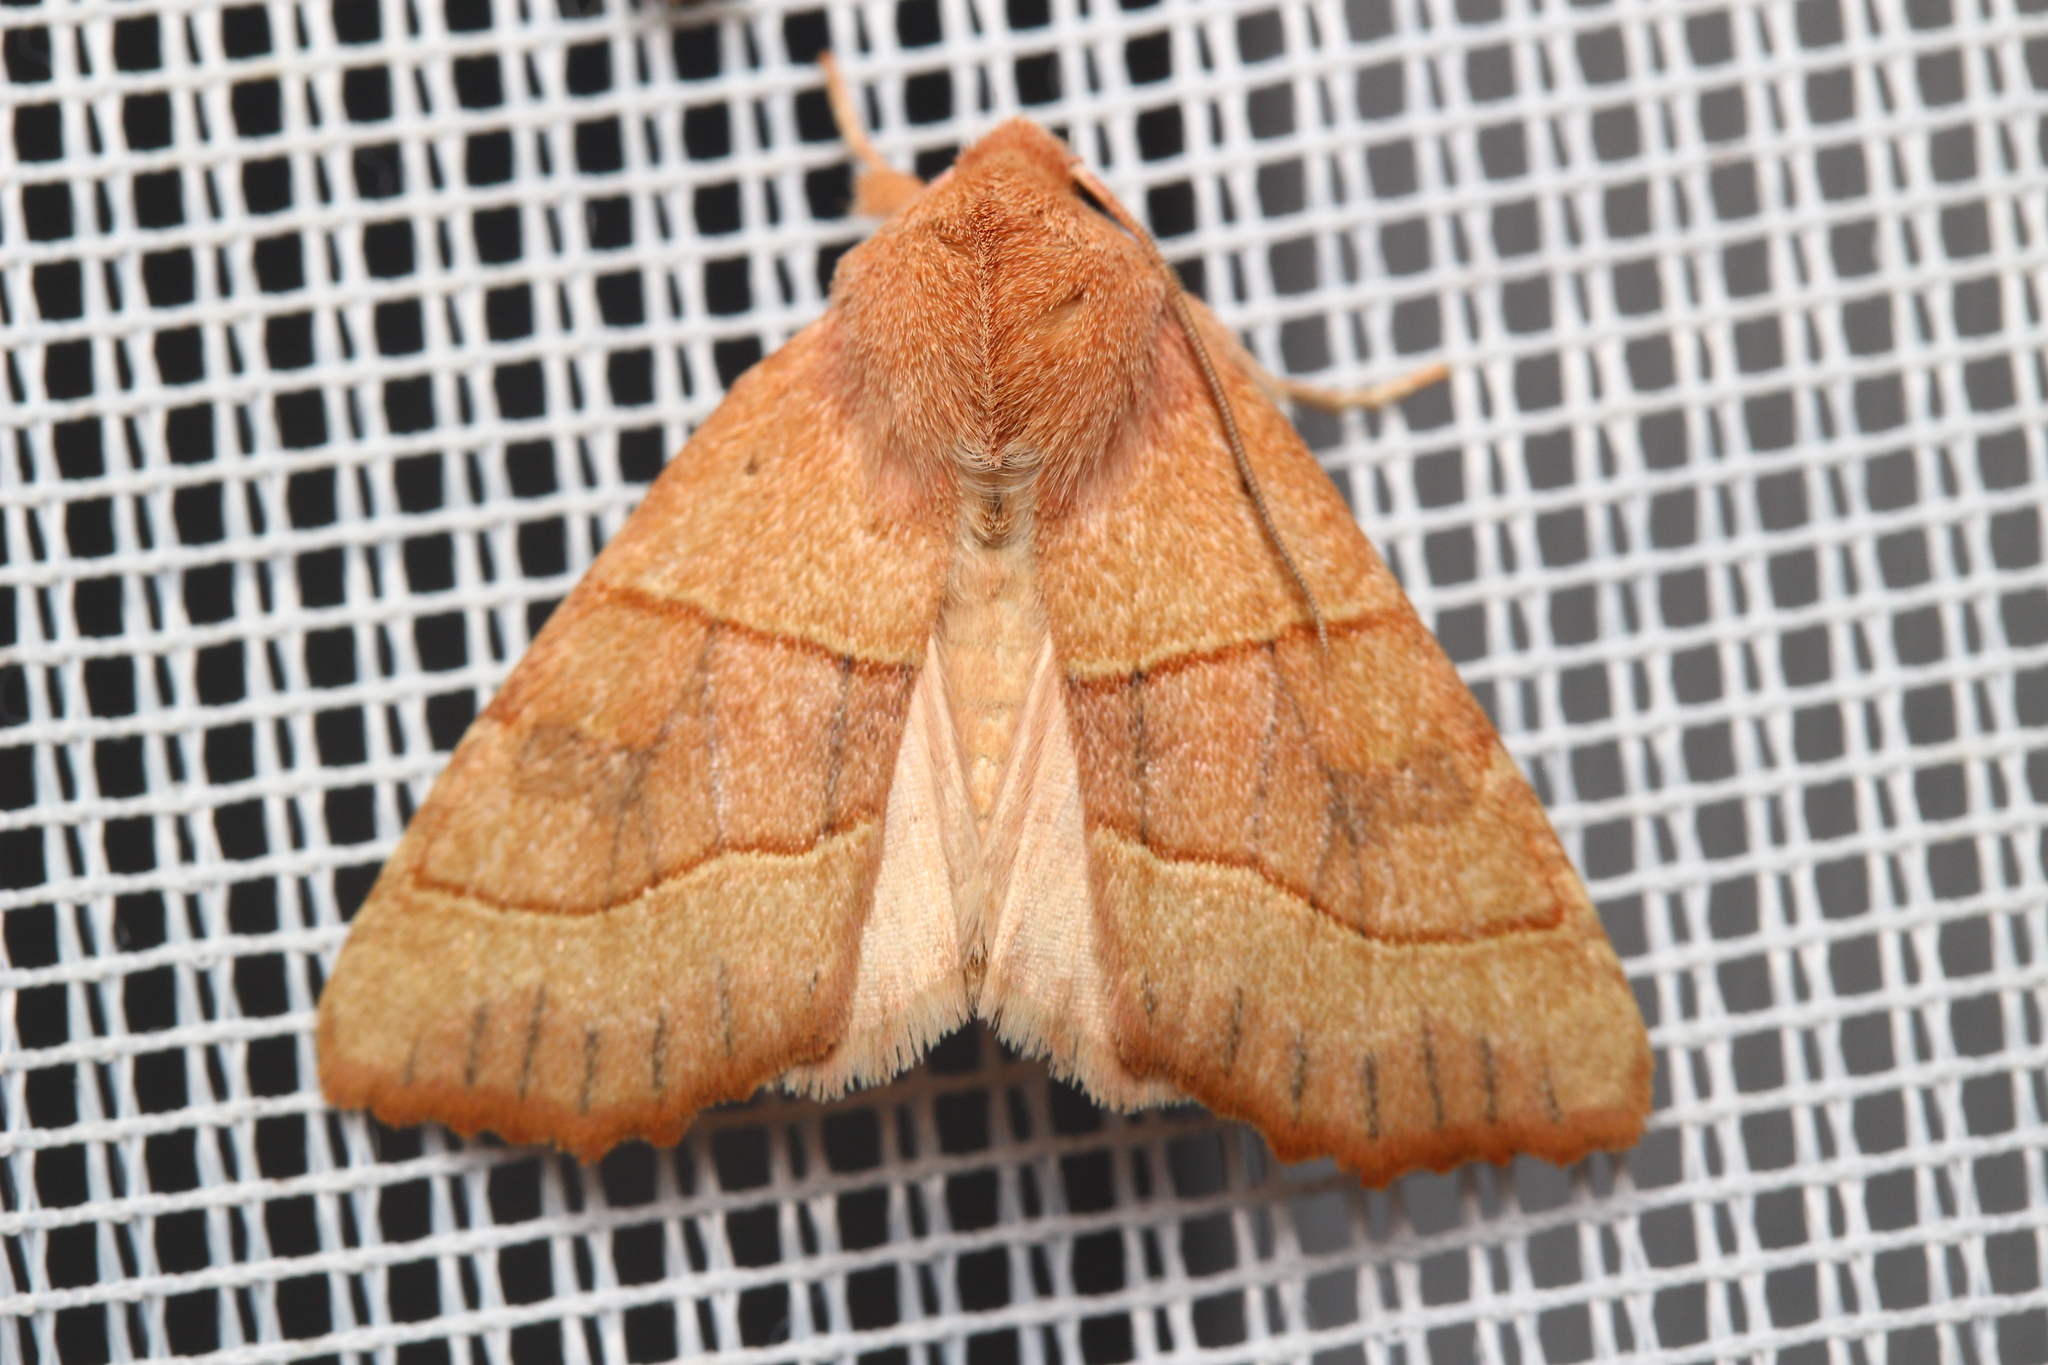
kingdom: Animalia
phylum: Arthropoda
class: Insecta
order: Lepidoptera
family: Noctuidae
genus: Atethmia
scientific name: Atethmia centrago
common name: Centre-barred sallow
